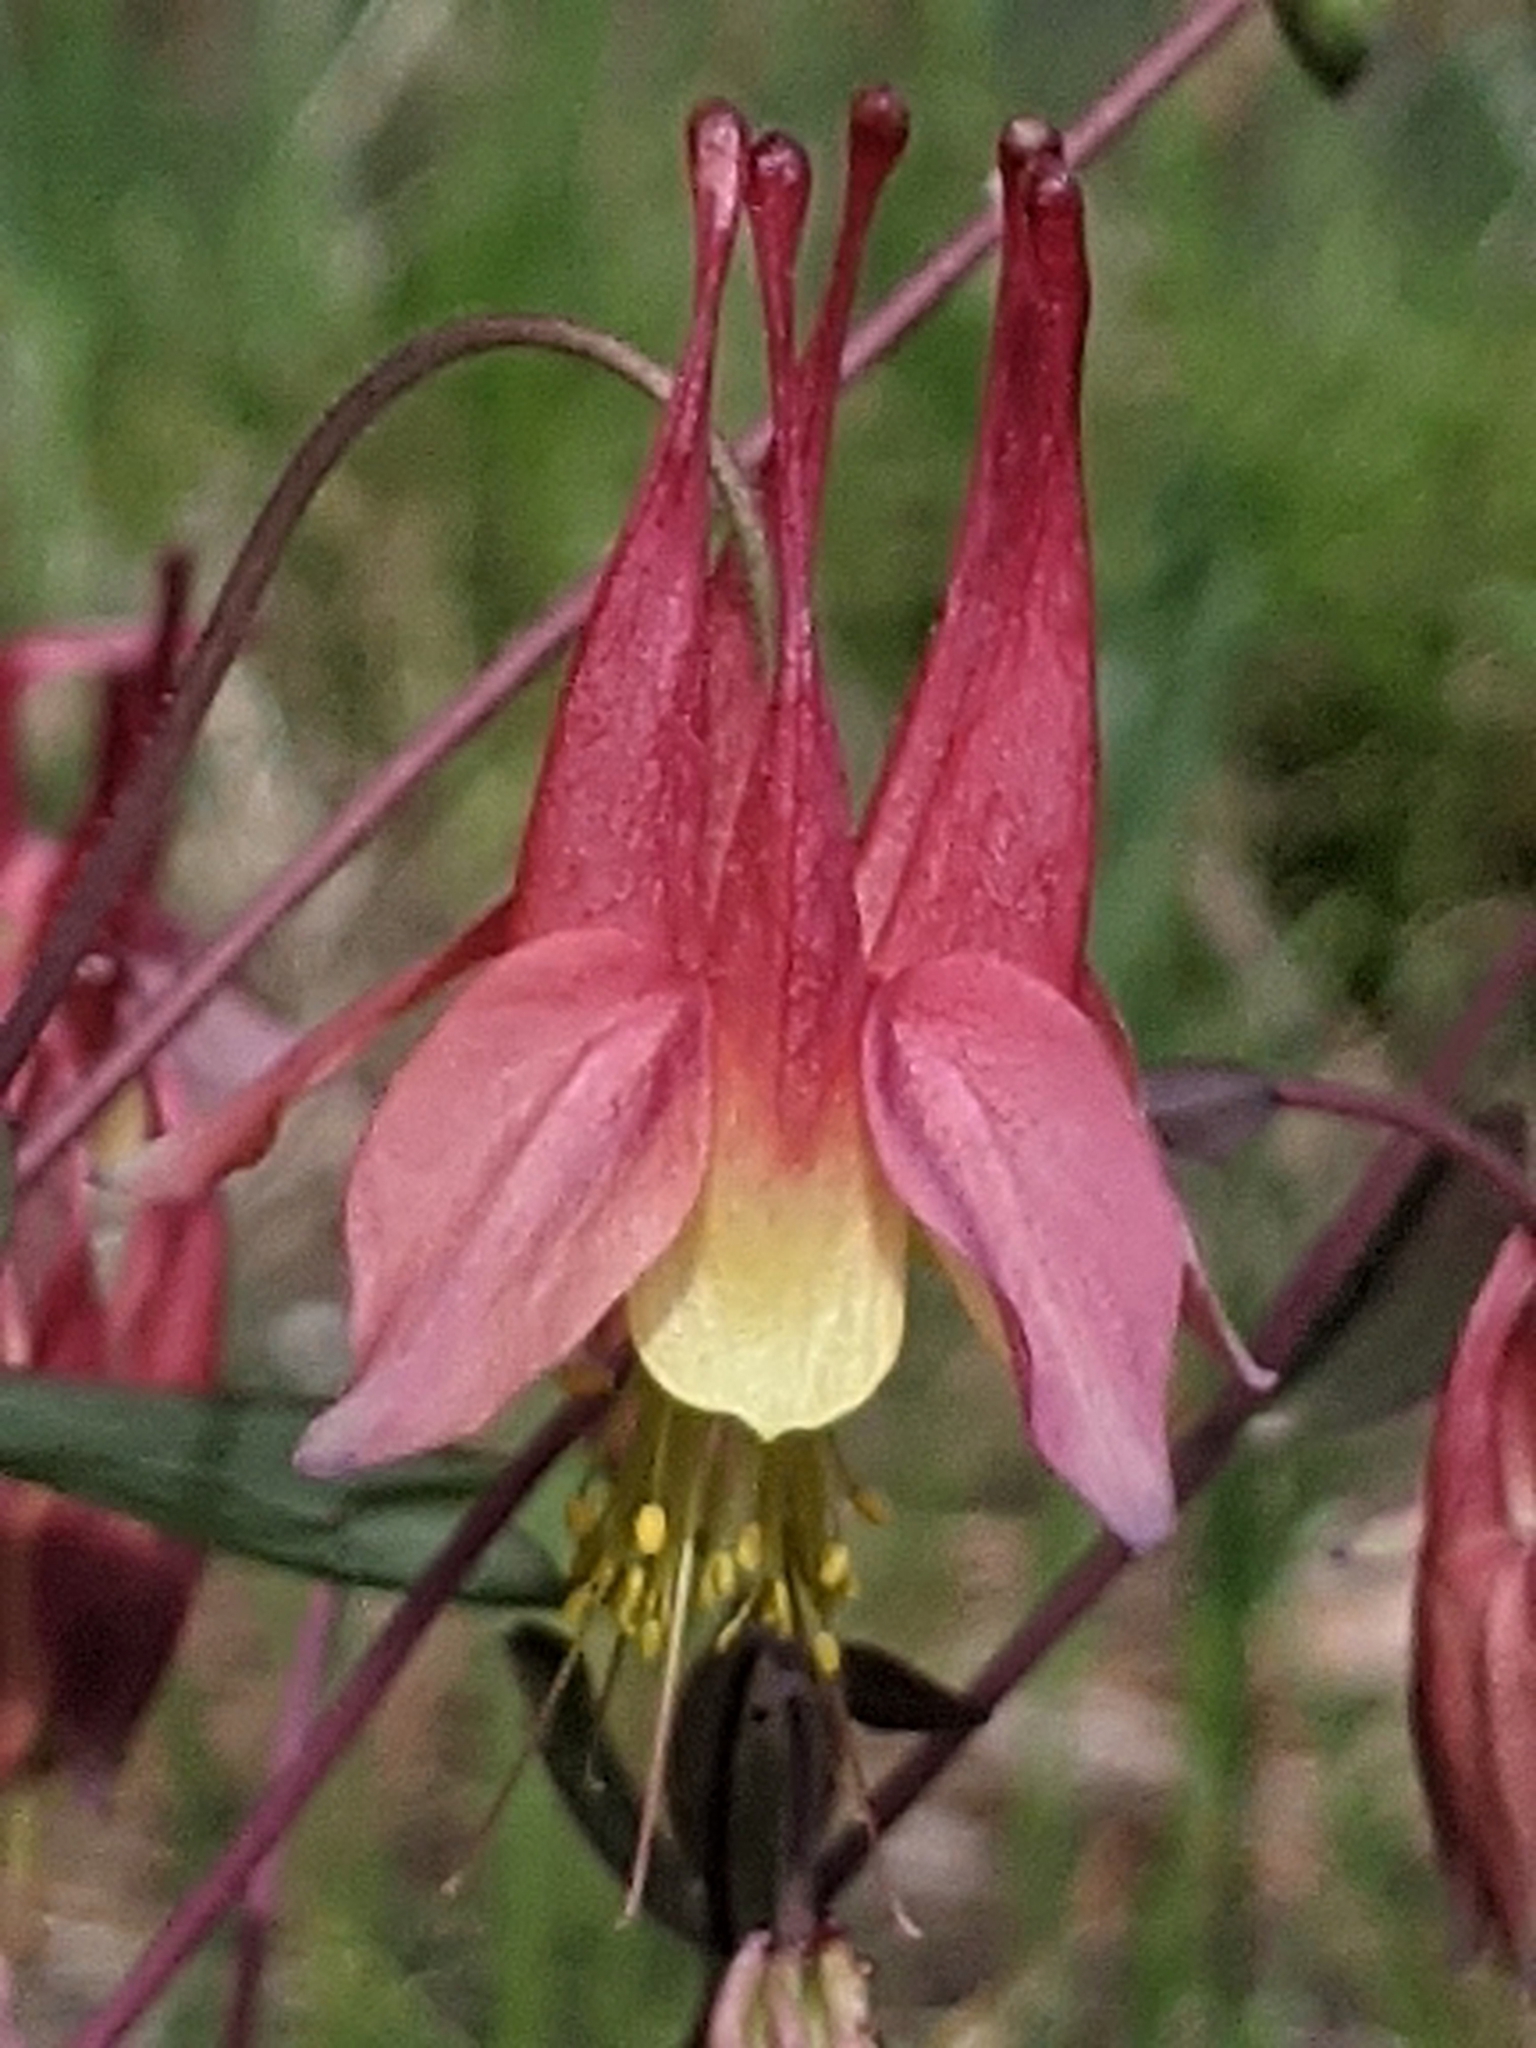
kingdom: Plantae
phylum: Tracheophyta
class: Magnoliopsida
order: Ranunculales
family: Ranunculaceae
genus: Aquilegia
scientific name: Aquilegia canadensis
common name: American columbine
